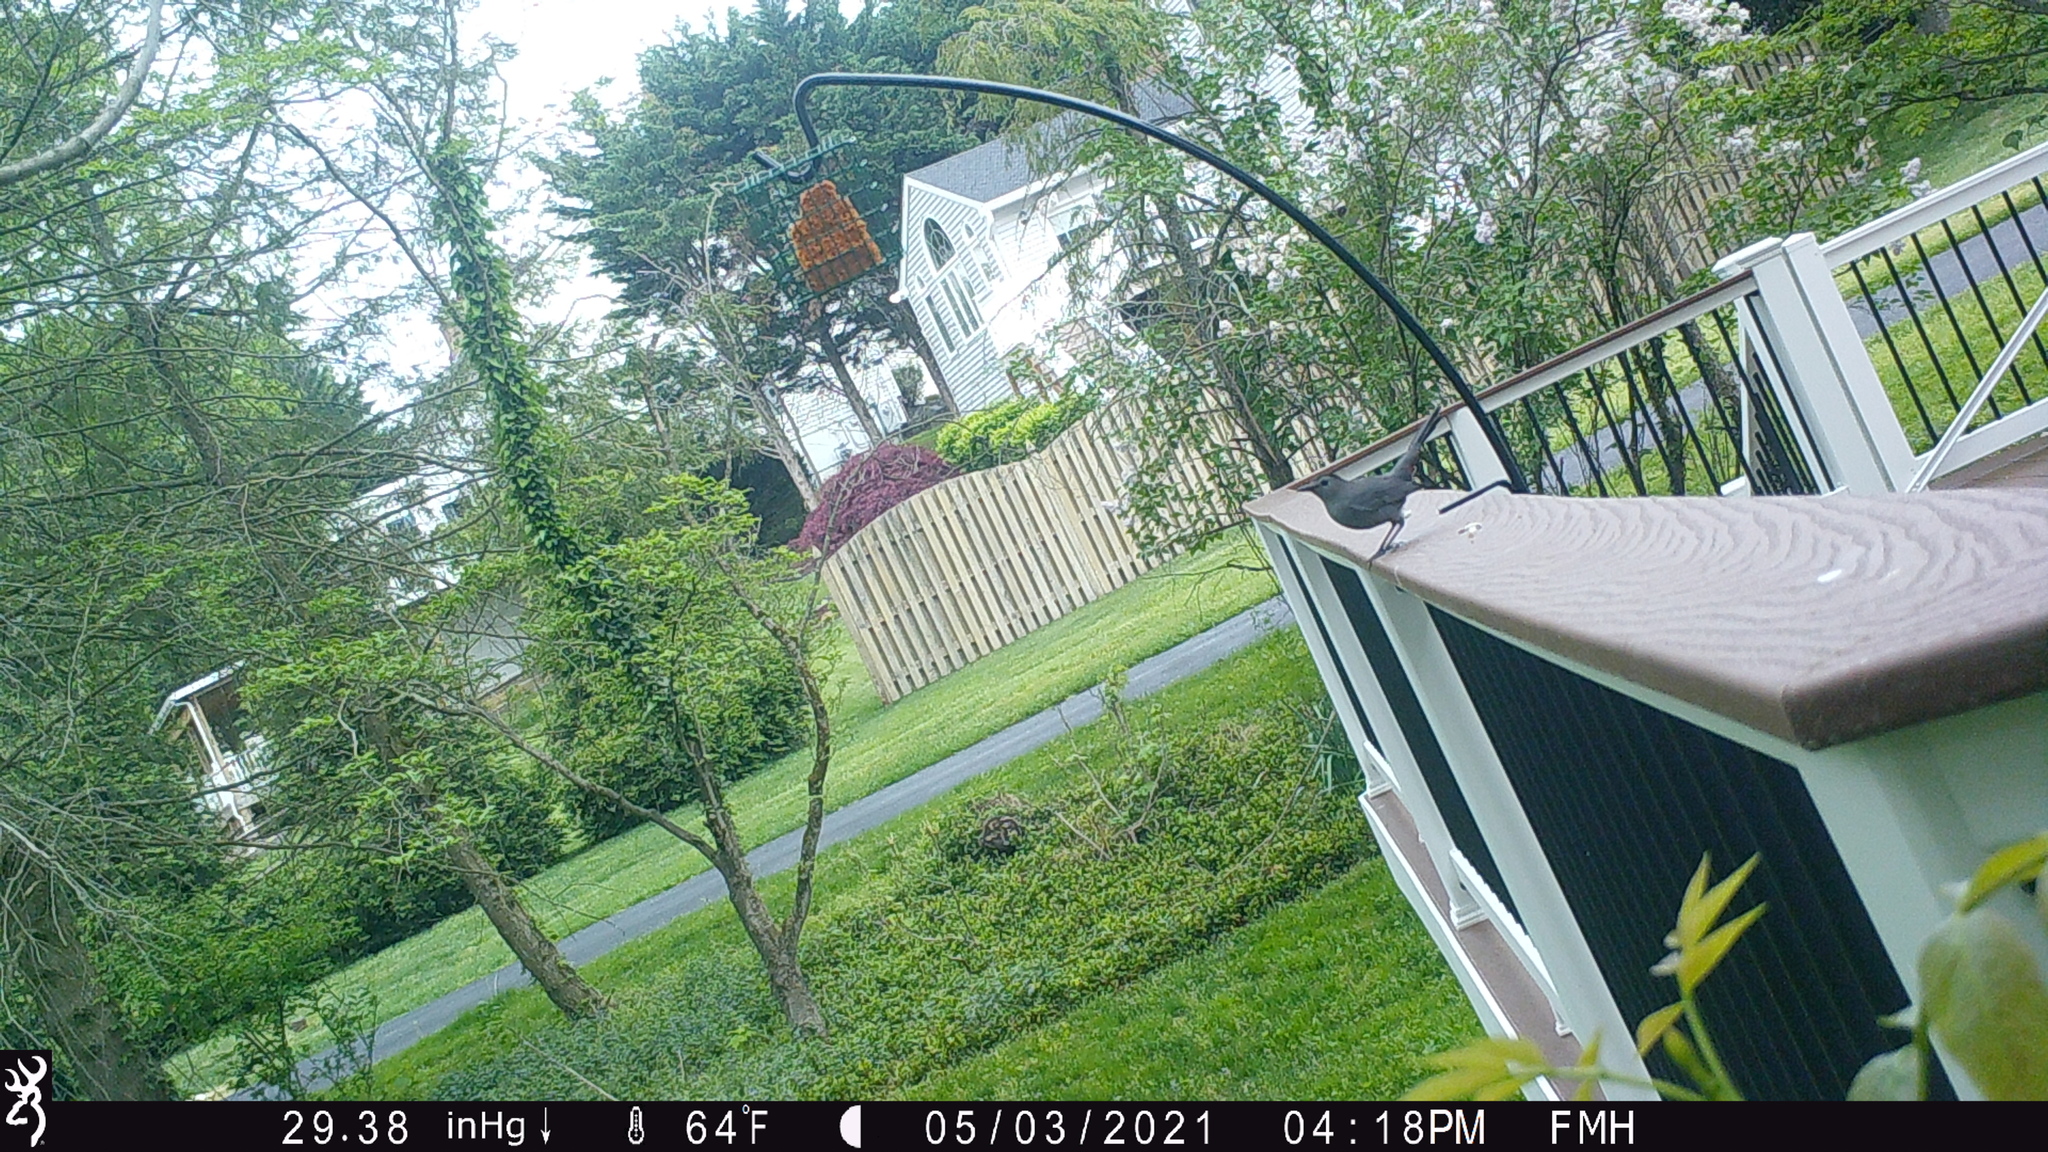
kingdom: Animalia
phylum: Chordata
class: Aves
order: Passeriformes
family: Mimidae
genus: Dumetella
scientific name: Dumetella carolinensis
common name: Gray catbird
